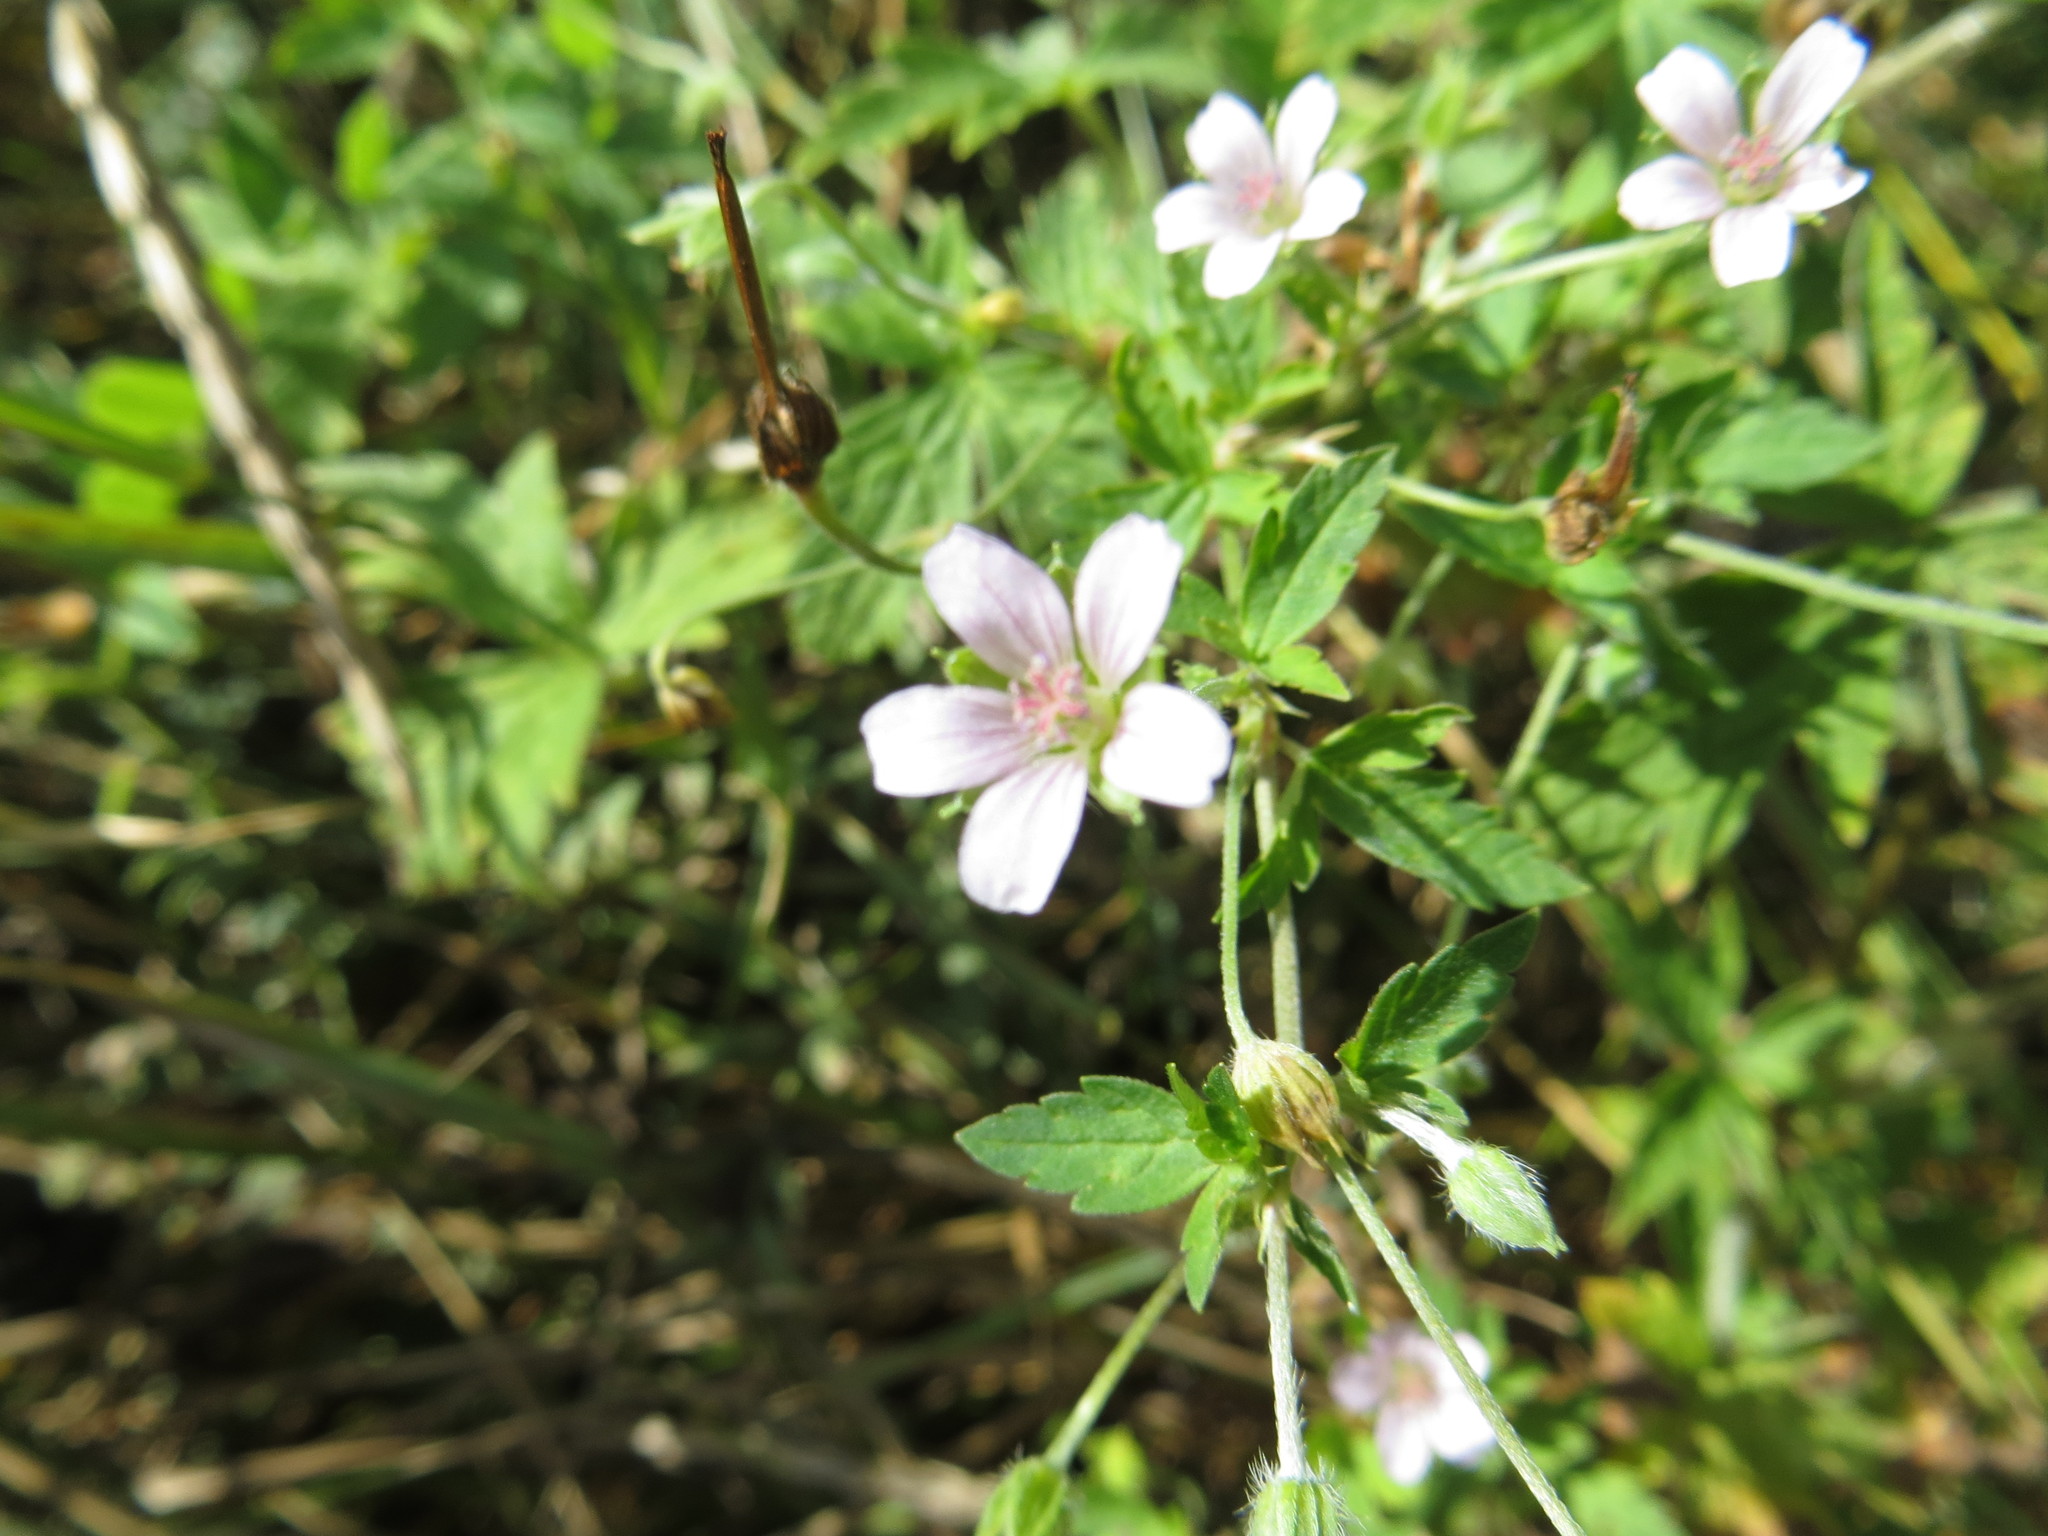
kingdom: Plantae
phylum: Tracheophyta
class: Magnoliopsida
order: Geraniales
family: Geraniaceae
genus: Geranium
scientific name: Geranium sibiricum
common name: Siberian crane's-bill
